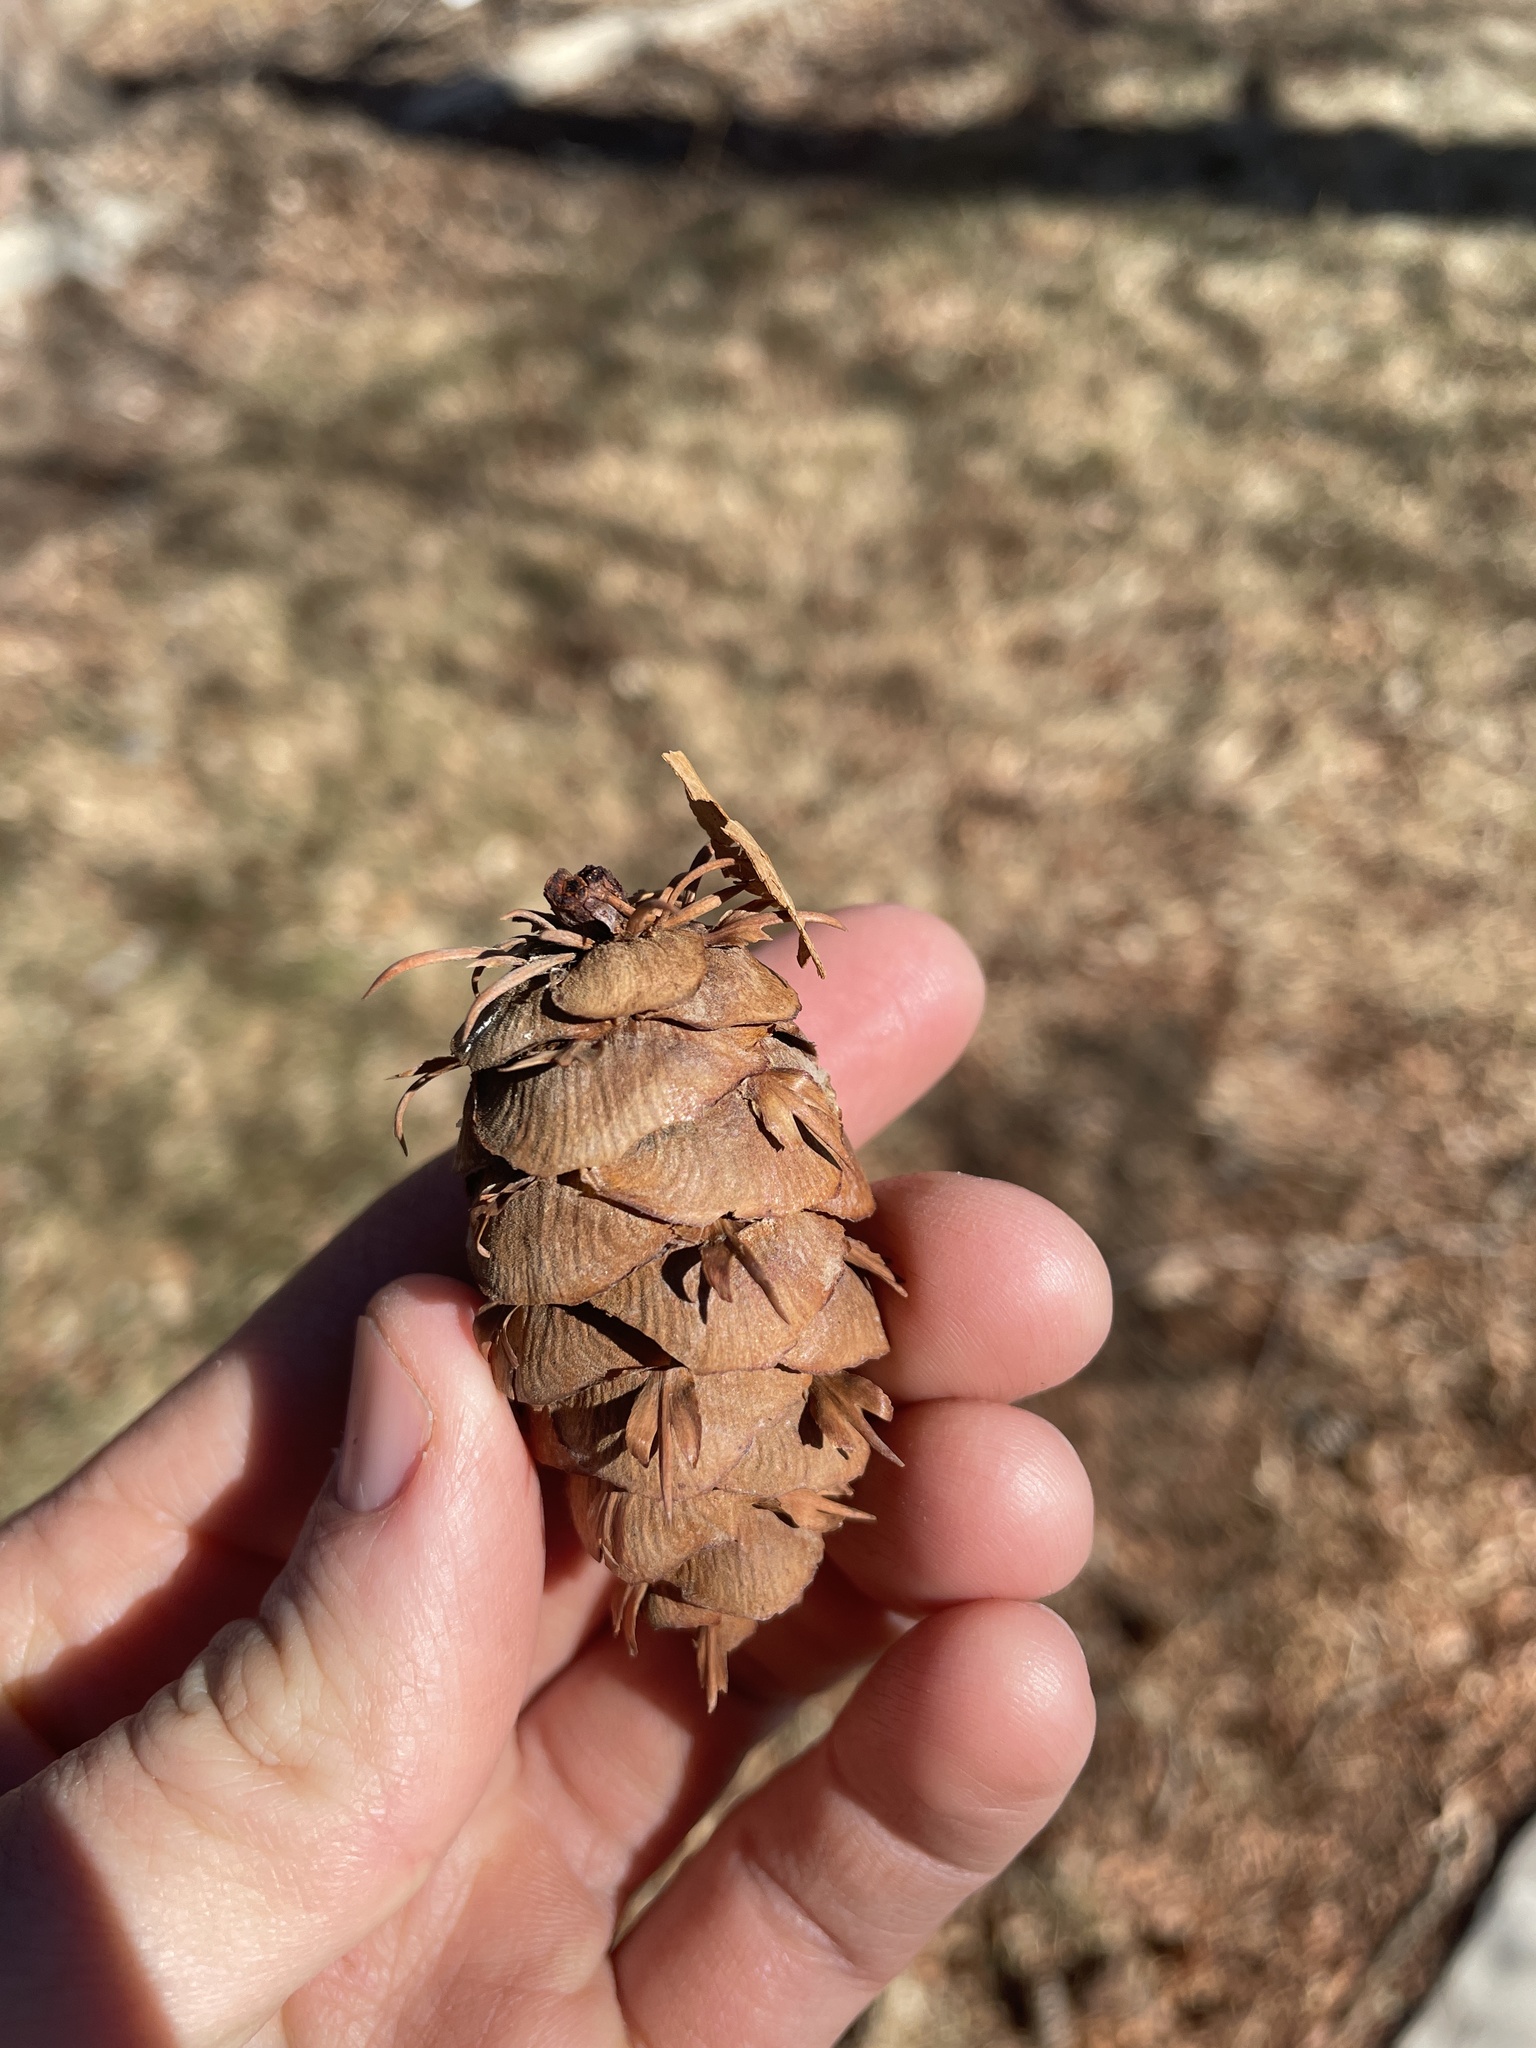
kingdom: Plantae
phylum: Tracheophyta
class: Pinopsida
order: Pinales
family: Pinaceae
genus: Pseudotsuga
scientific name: Pseudotsuga menziesii
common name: Douglas fir
